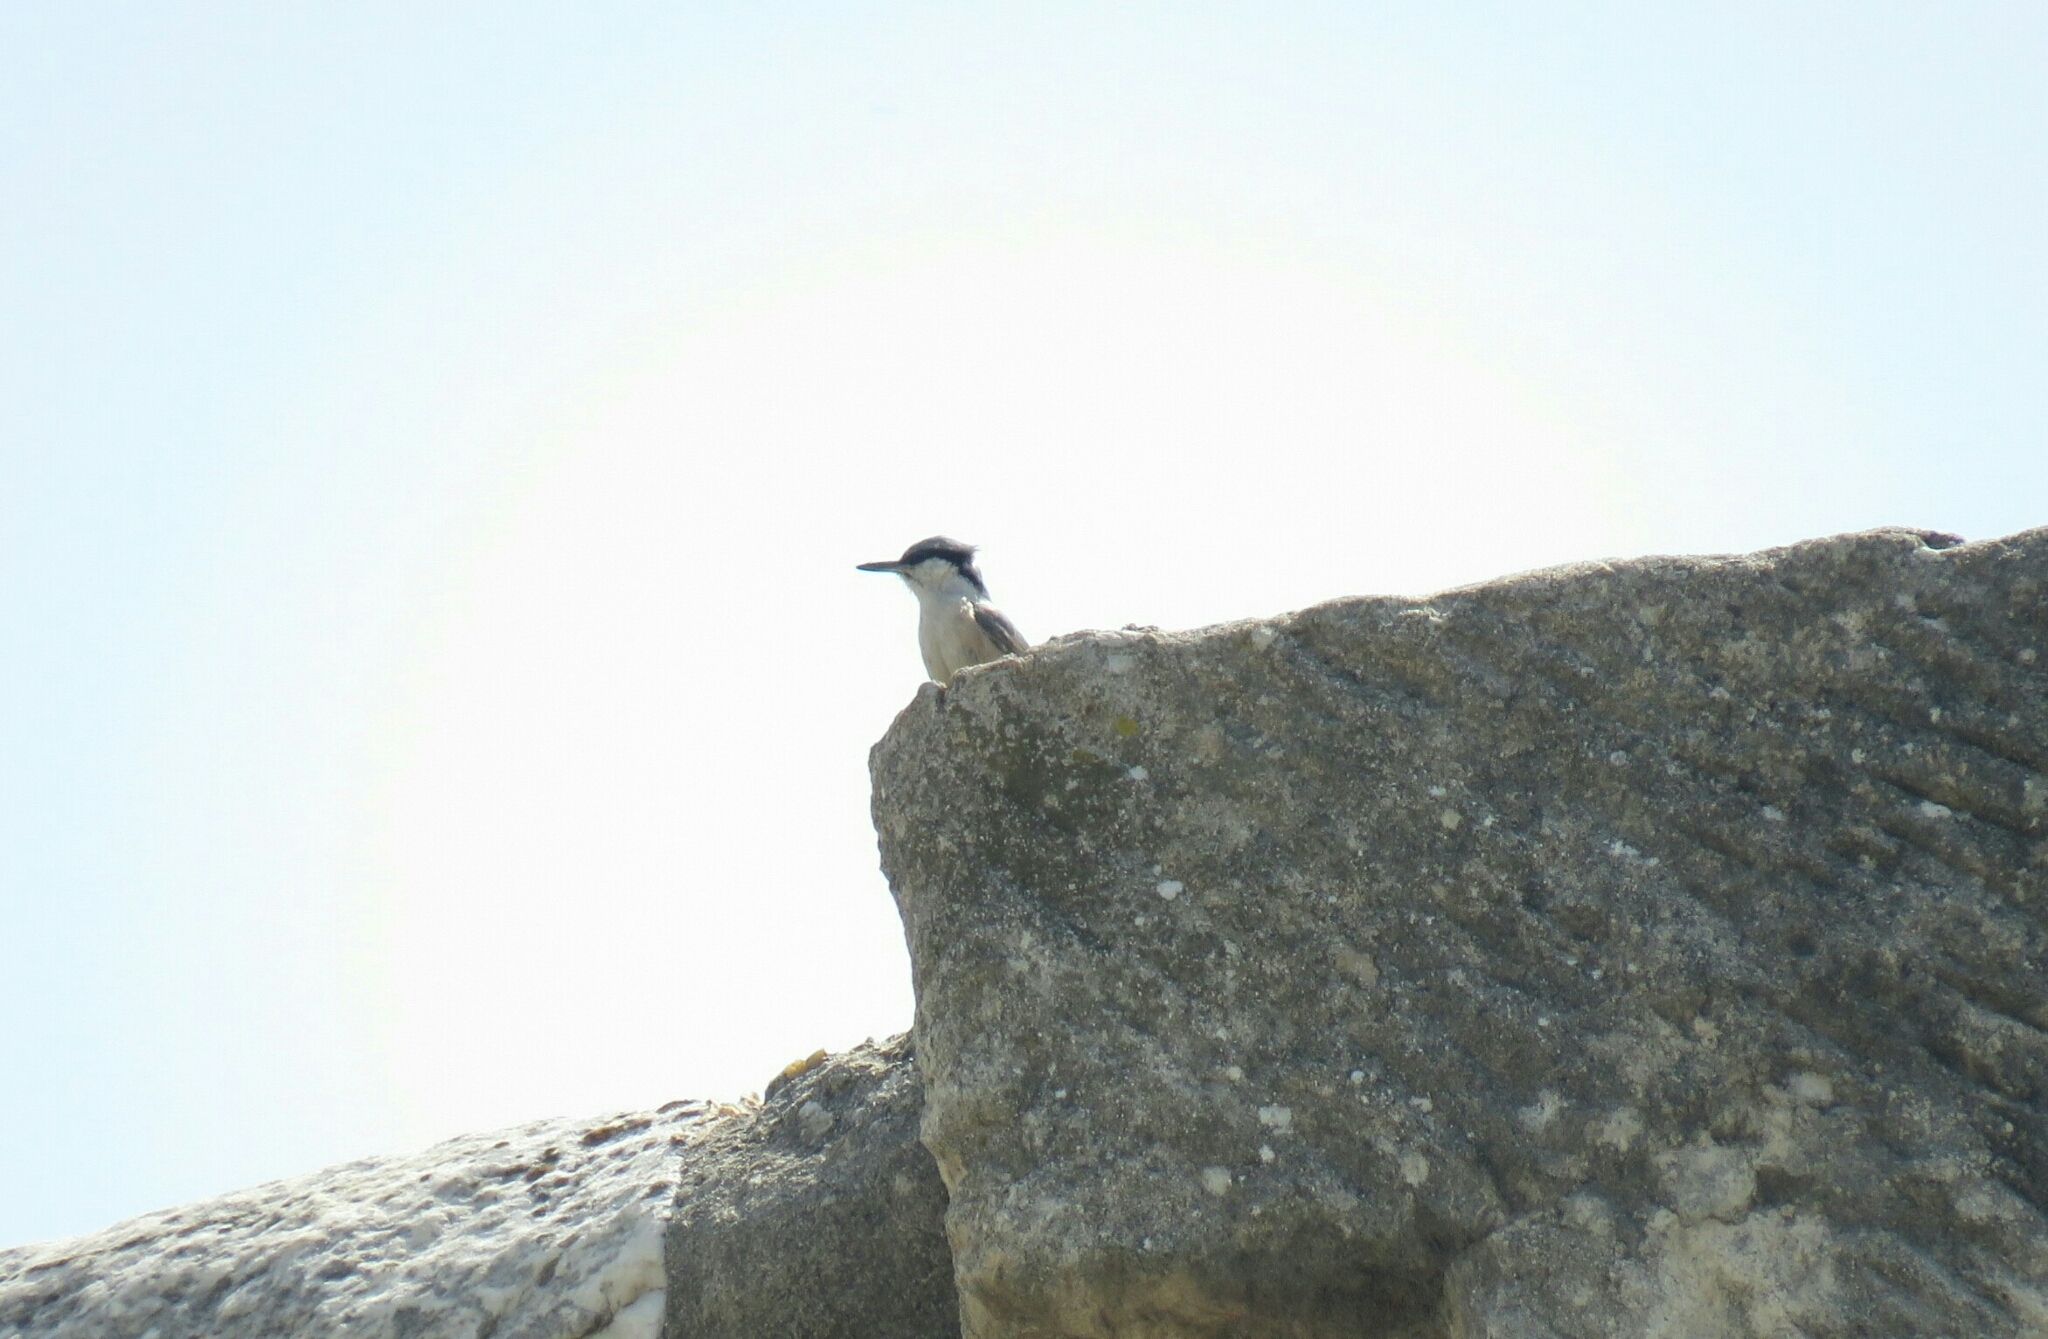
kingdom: Animalia
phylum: Chordata
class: Aves
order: Passeriformes
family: Sittidae
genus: Sitta
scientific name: Sitta neumayer
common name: Western rock nuthatch
